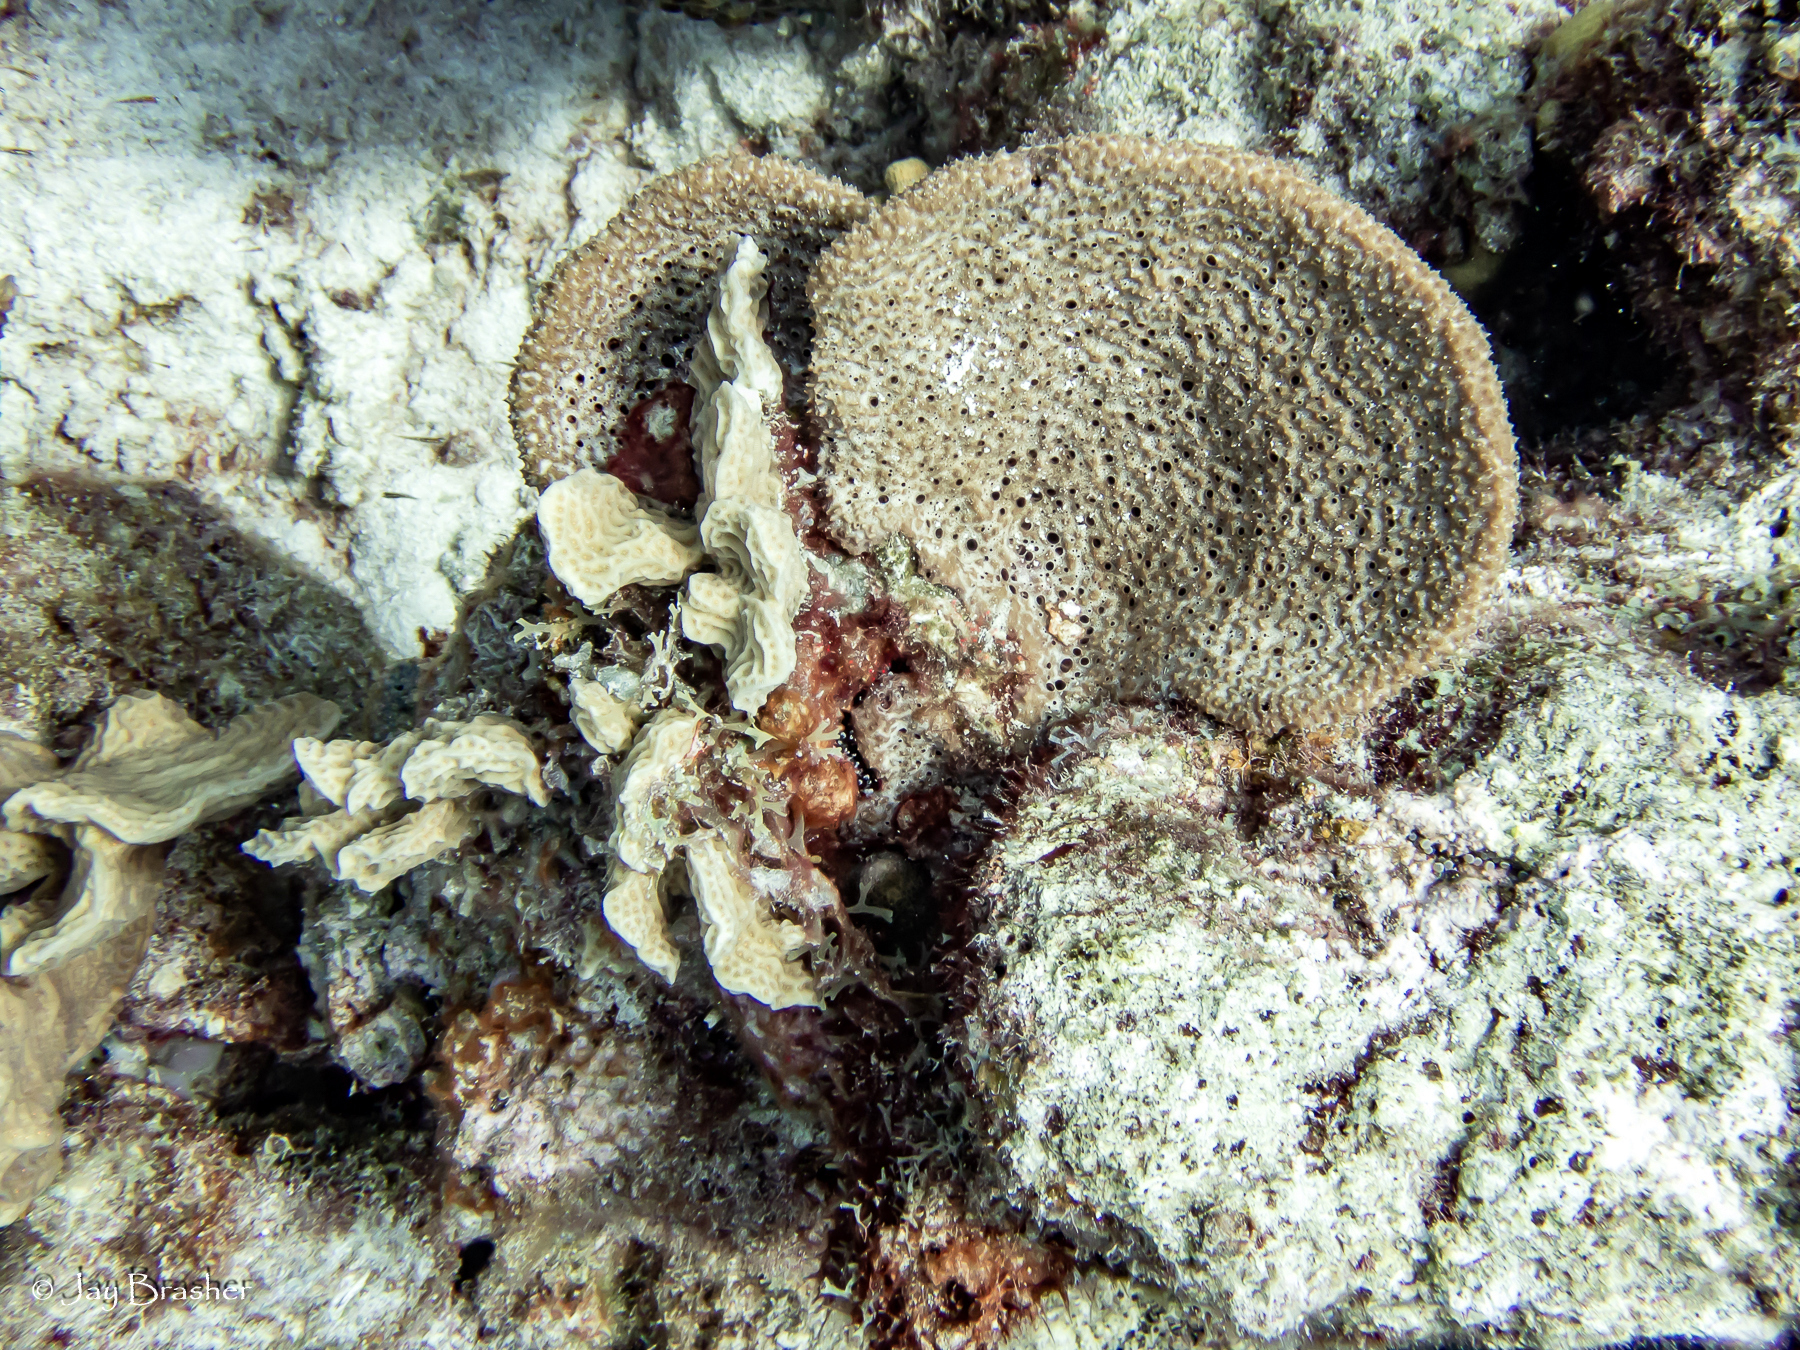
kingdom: Animalia
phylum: Porifera
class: Demospongiae
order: Dictyoceratida
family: Irciniidae
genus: Ircinia
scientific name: Ircinia campana
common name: Vase sponge
